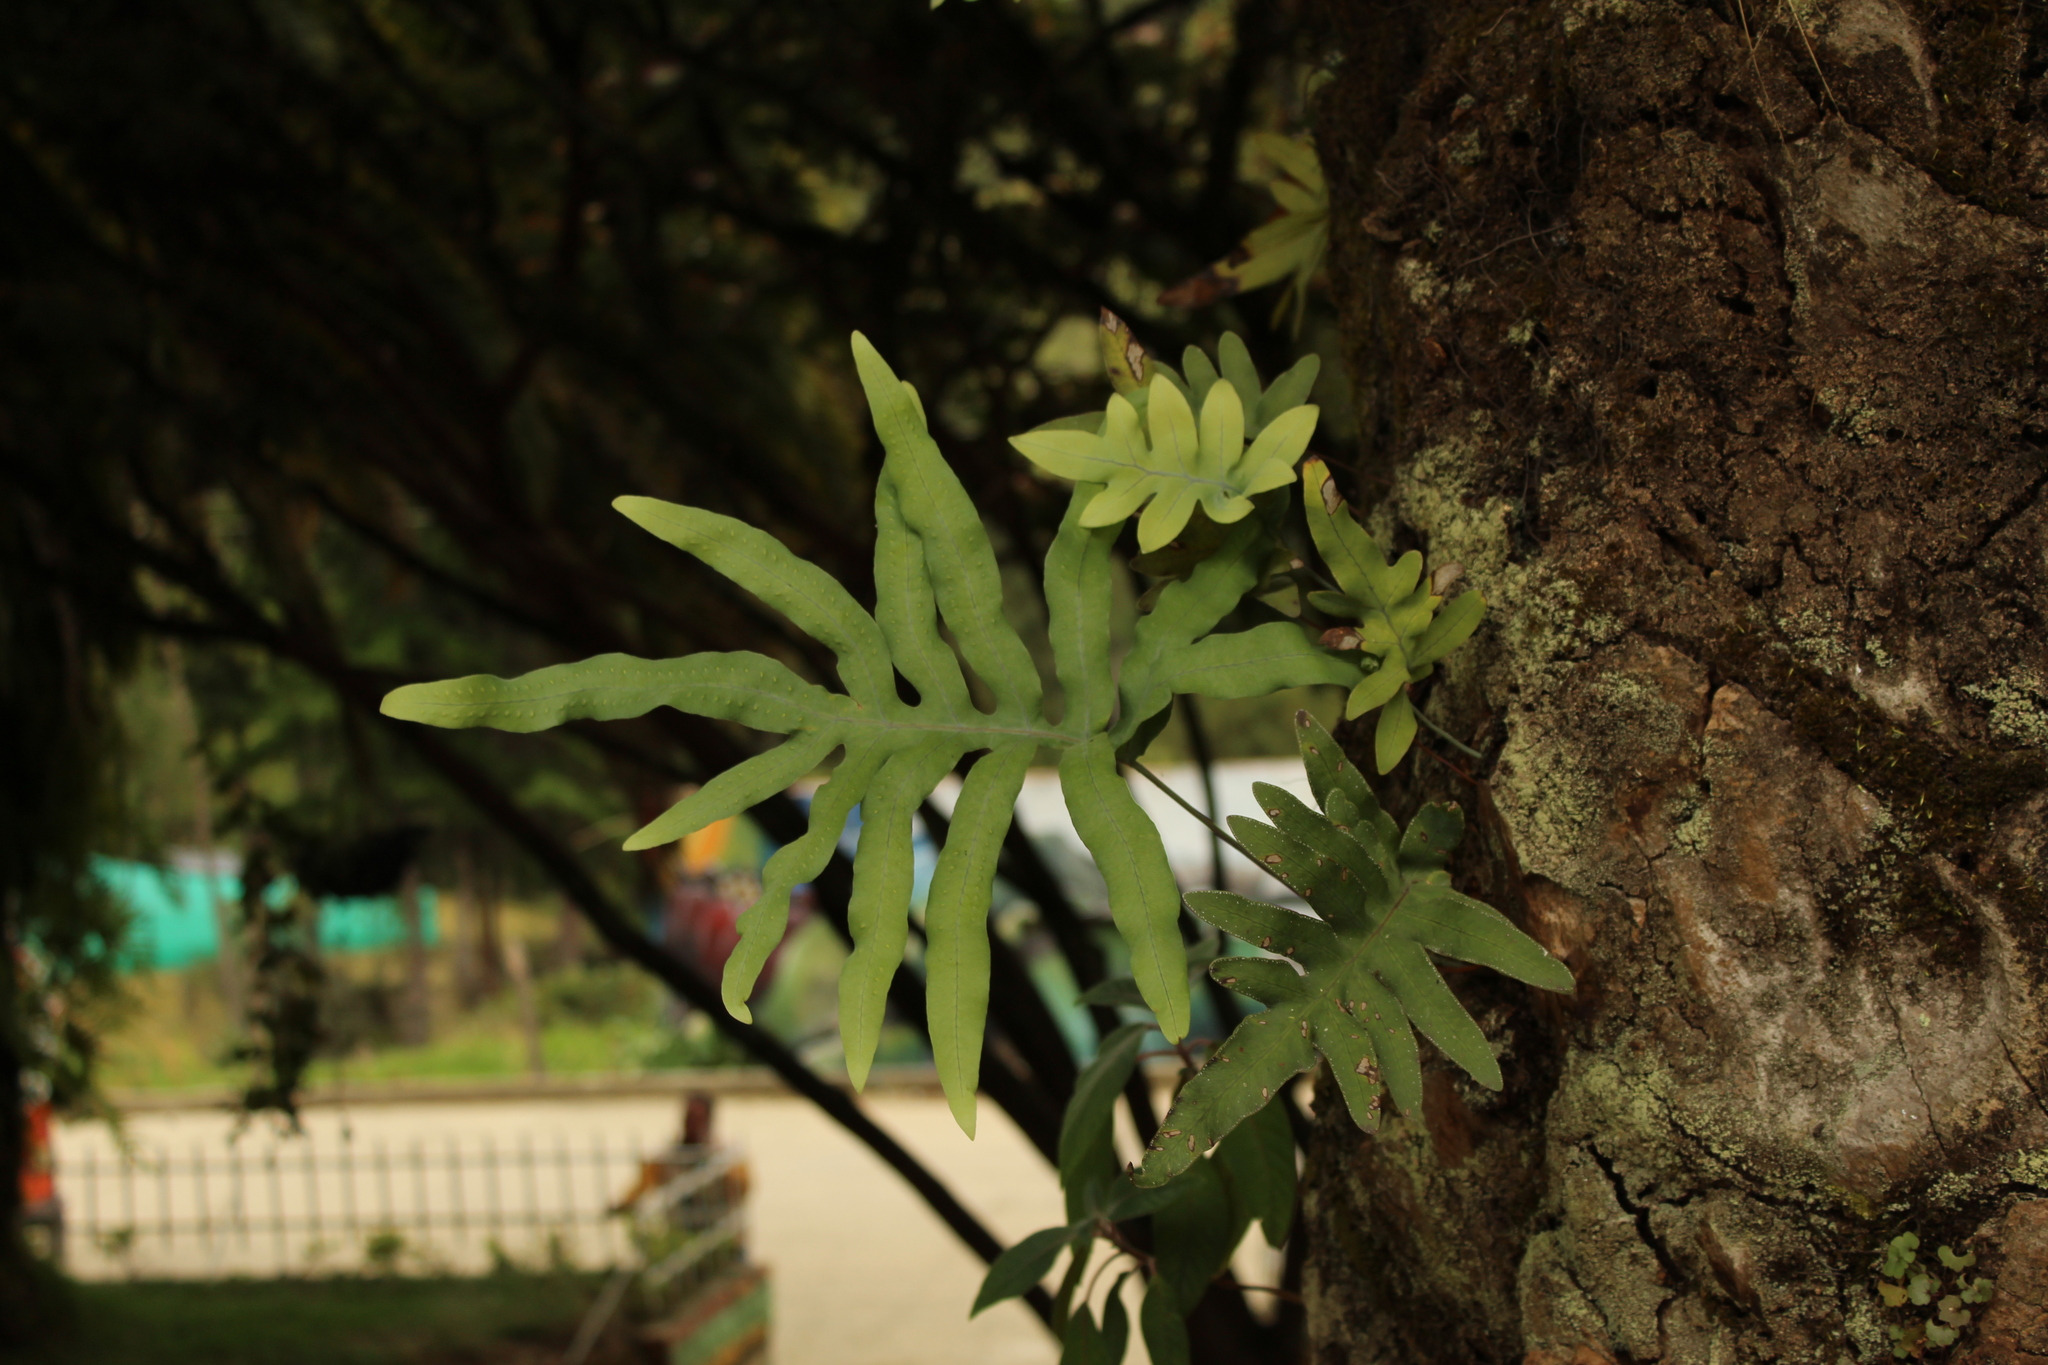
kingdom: Plantae
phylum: Tracheophyta
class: Polypodiopsida
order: Polypodiales
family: Polypodiaceae
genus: Phlebodium
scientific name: Phlebodium pseudoaureum
